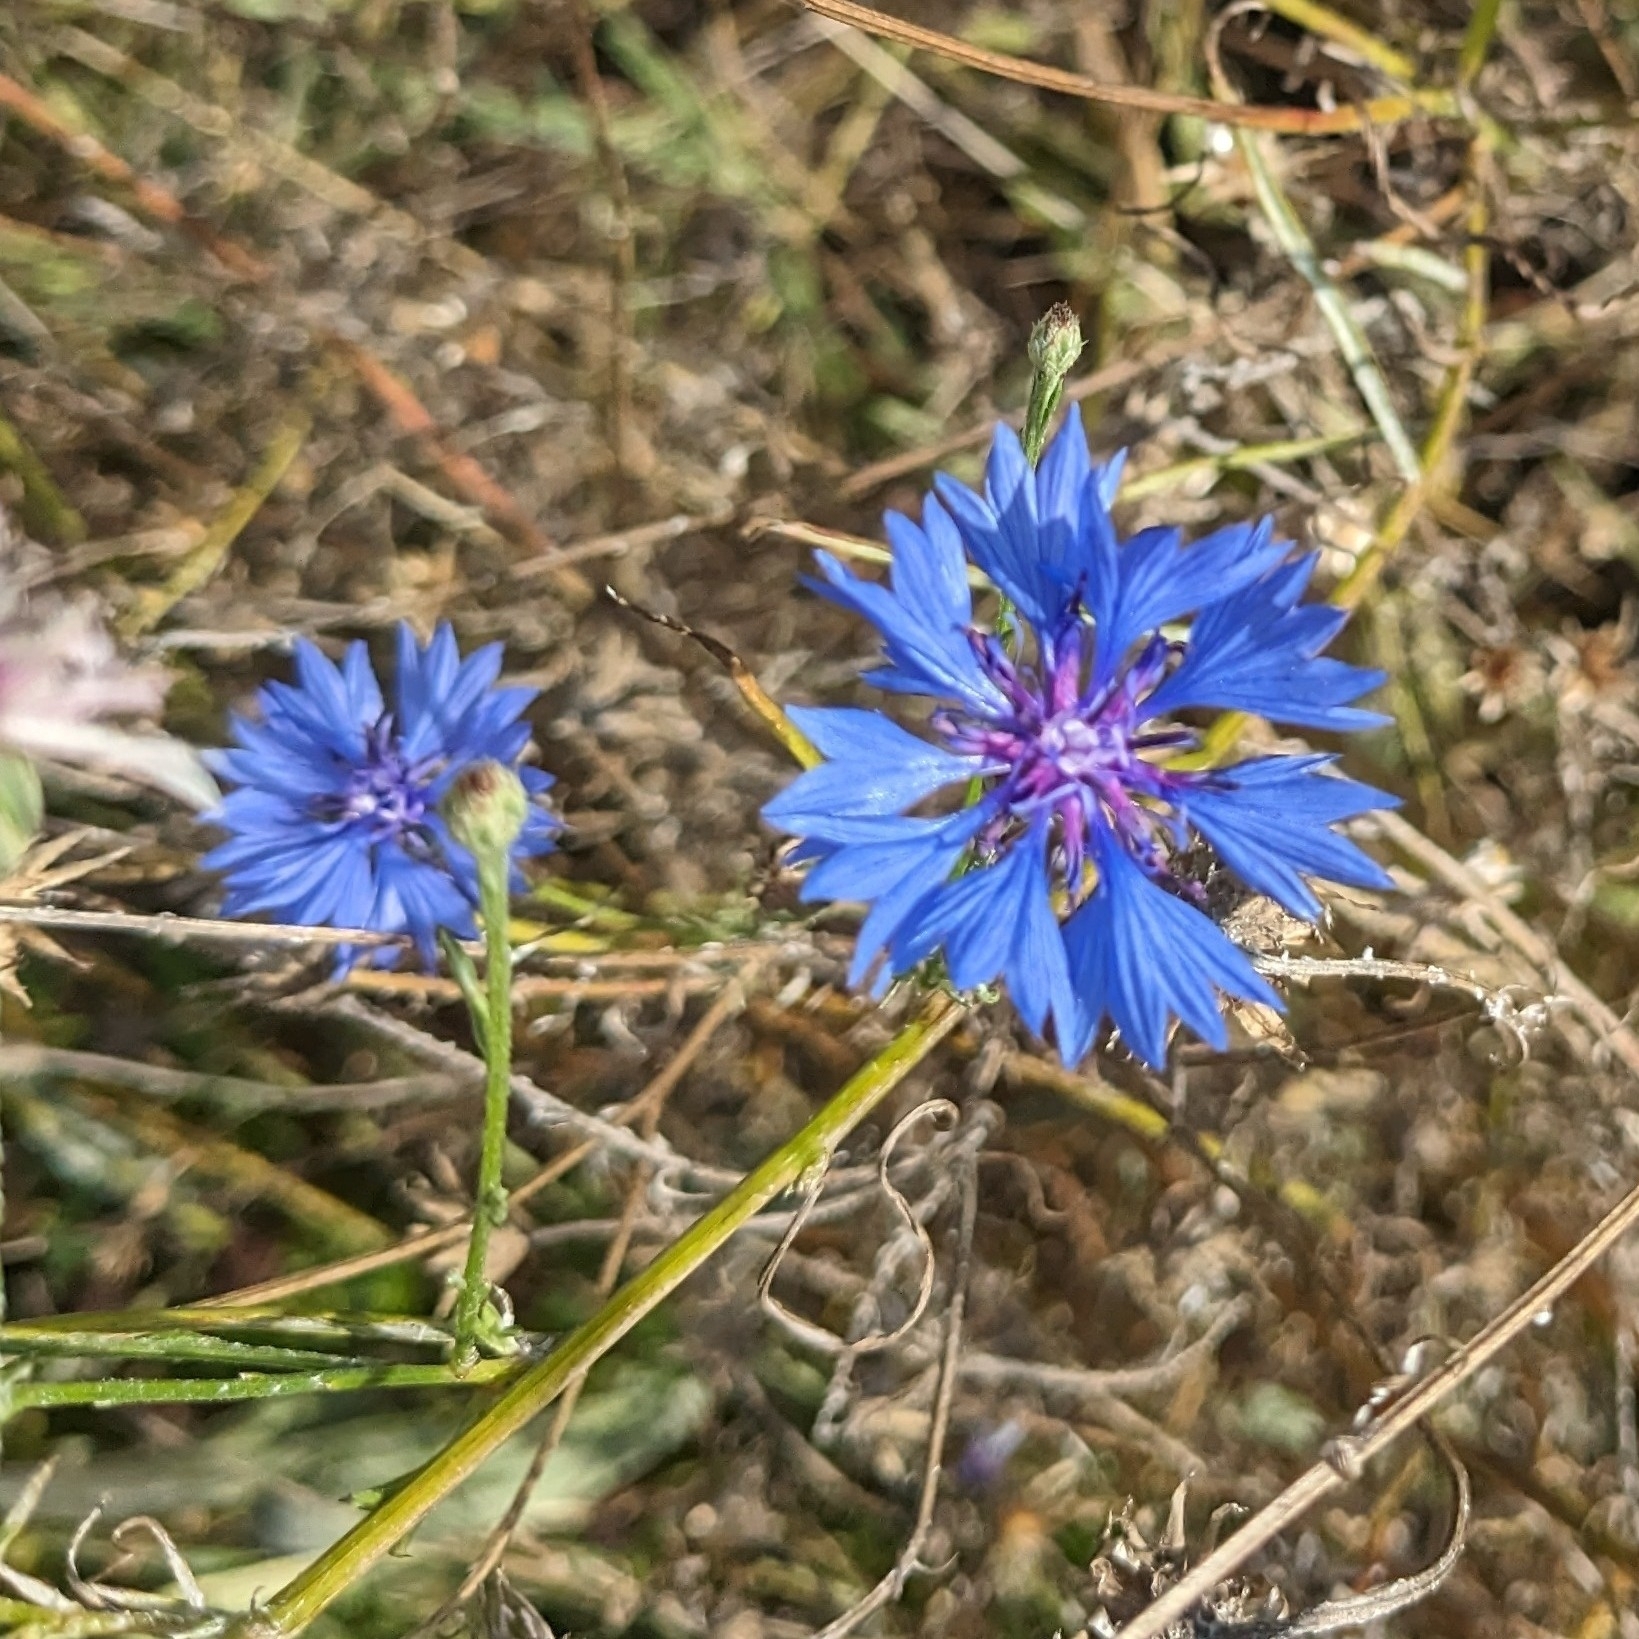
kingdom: Plantae
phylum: Tracheophyta
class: Magnoliopsida
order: Asterales
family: Asteraceae
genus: Centaurea
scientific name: Centaurea cyanus
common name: Cornflower
